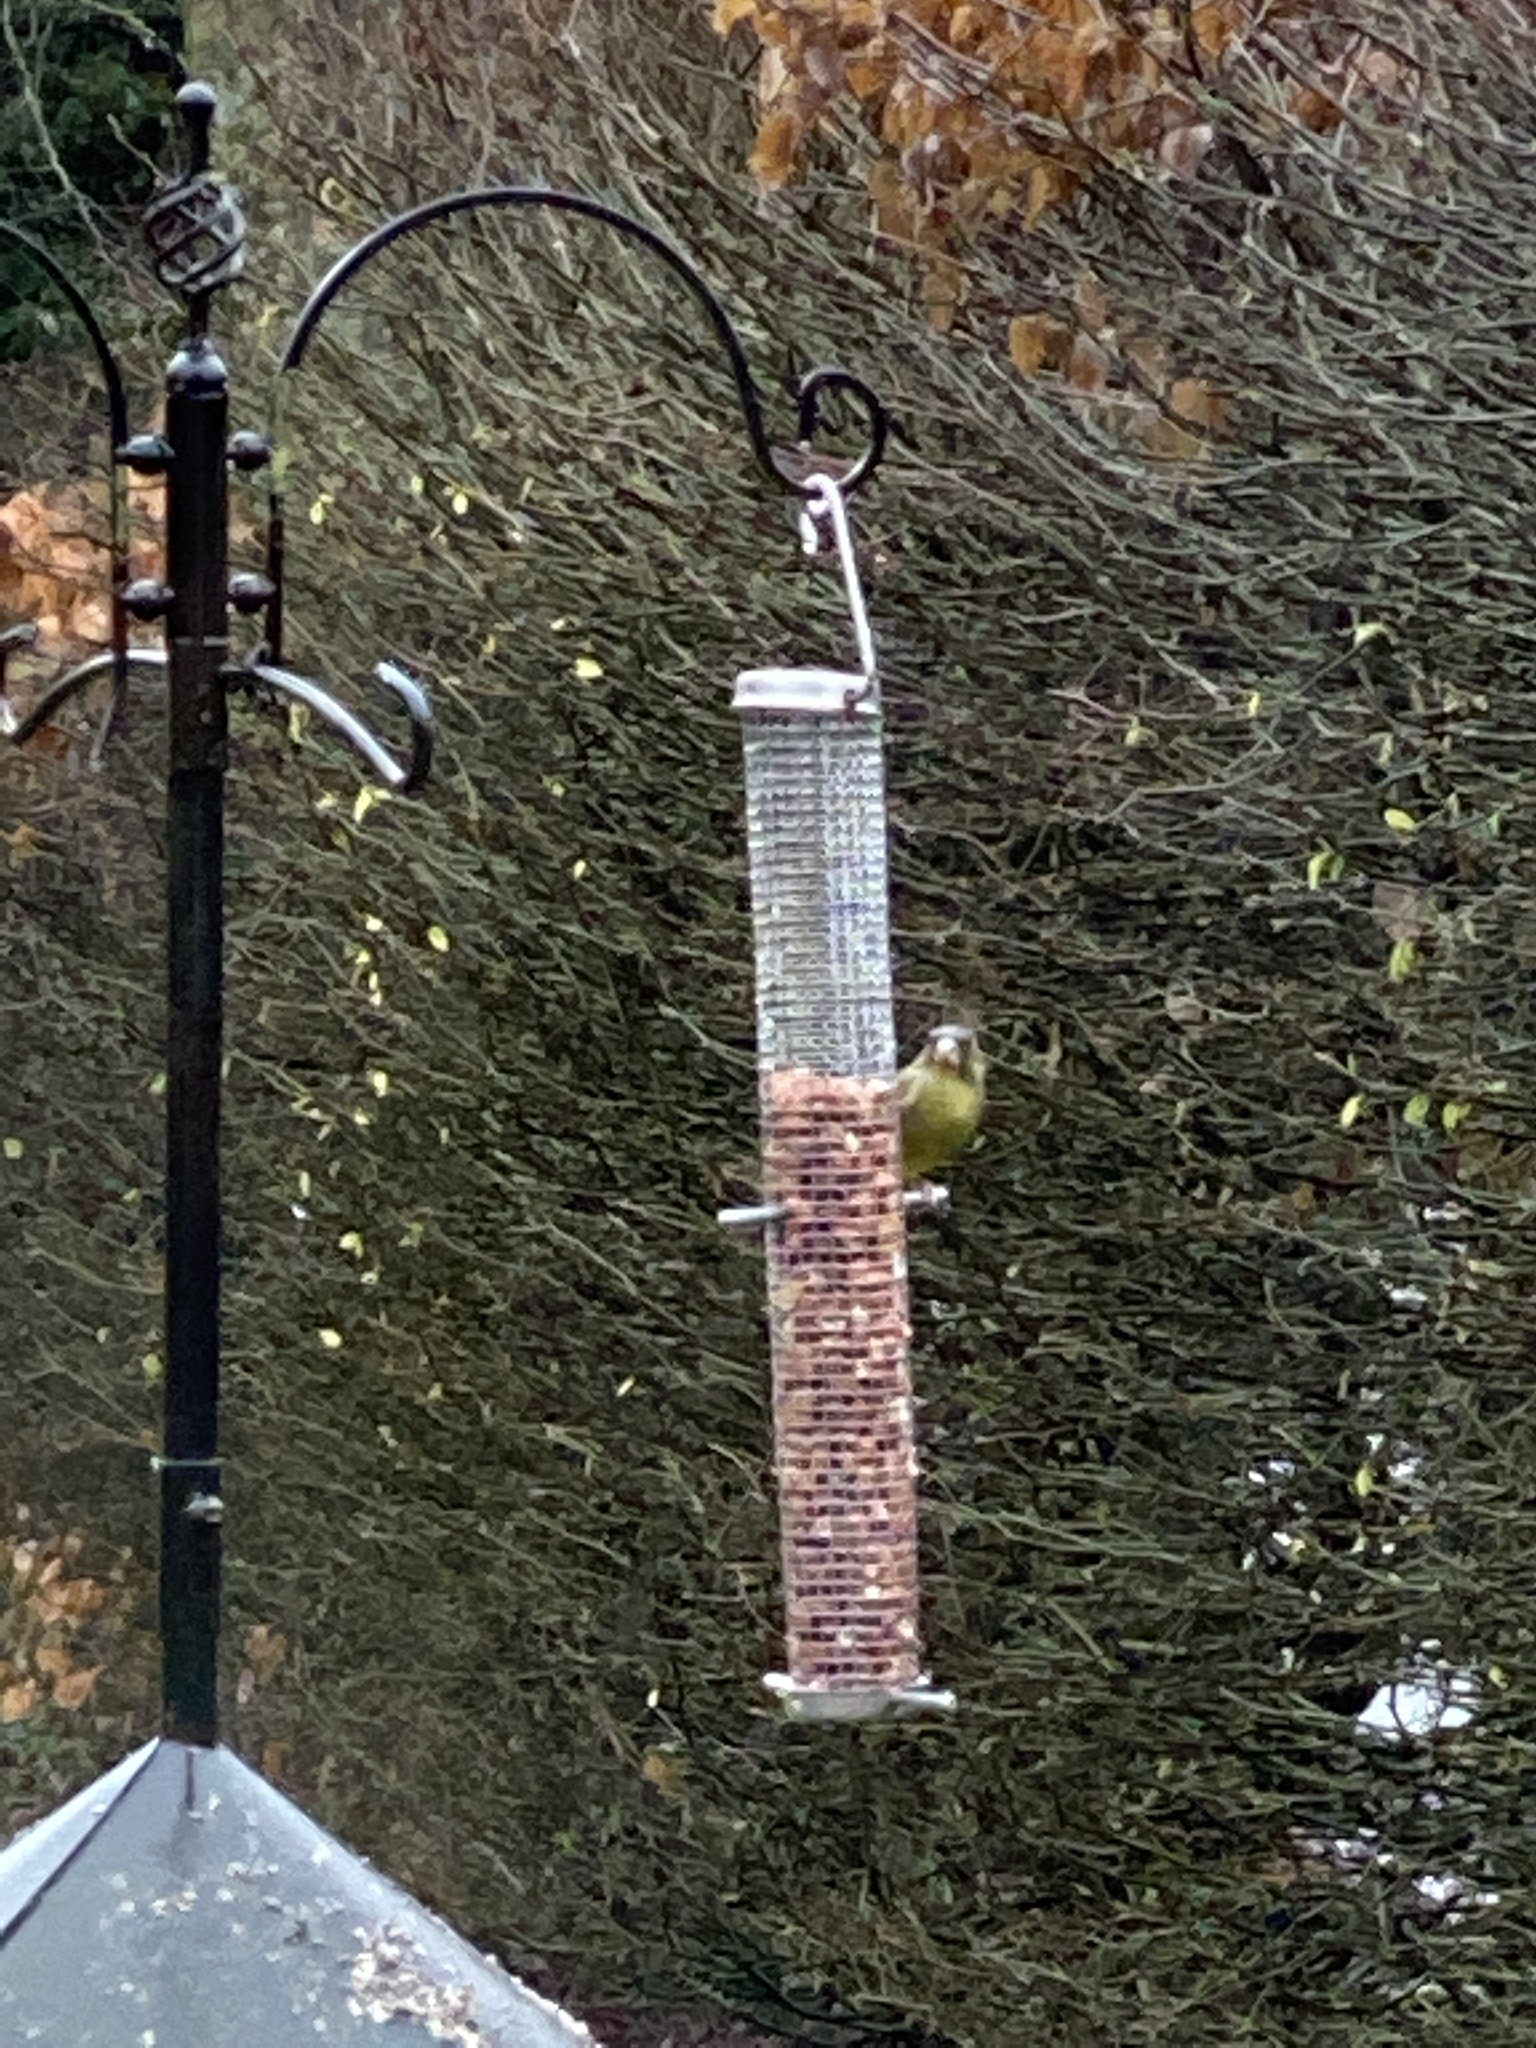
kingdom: Plantae
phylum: Tracheophyta
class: Liliopsida
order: Poales
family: Poaceae
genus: Chloris
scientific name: Chloris chloris
